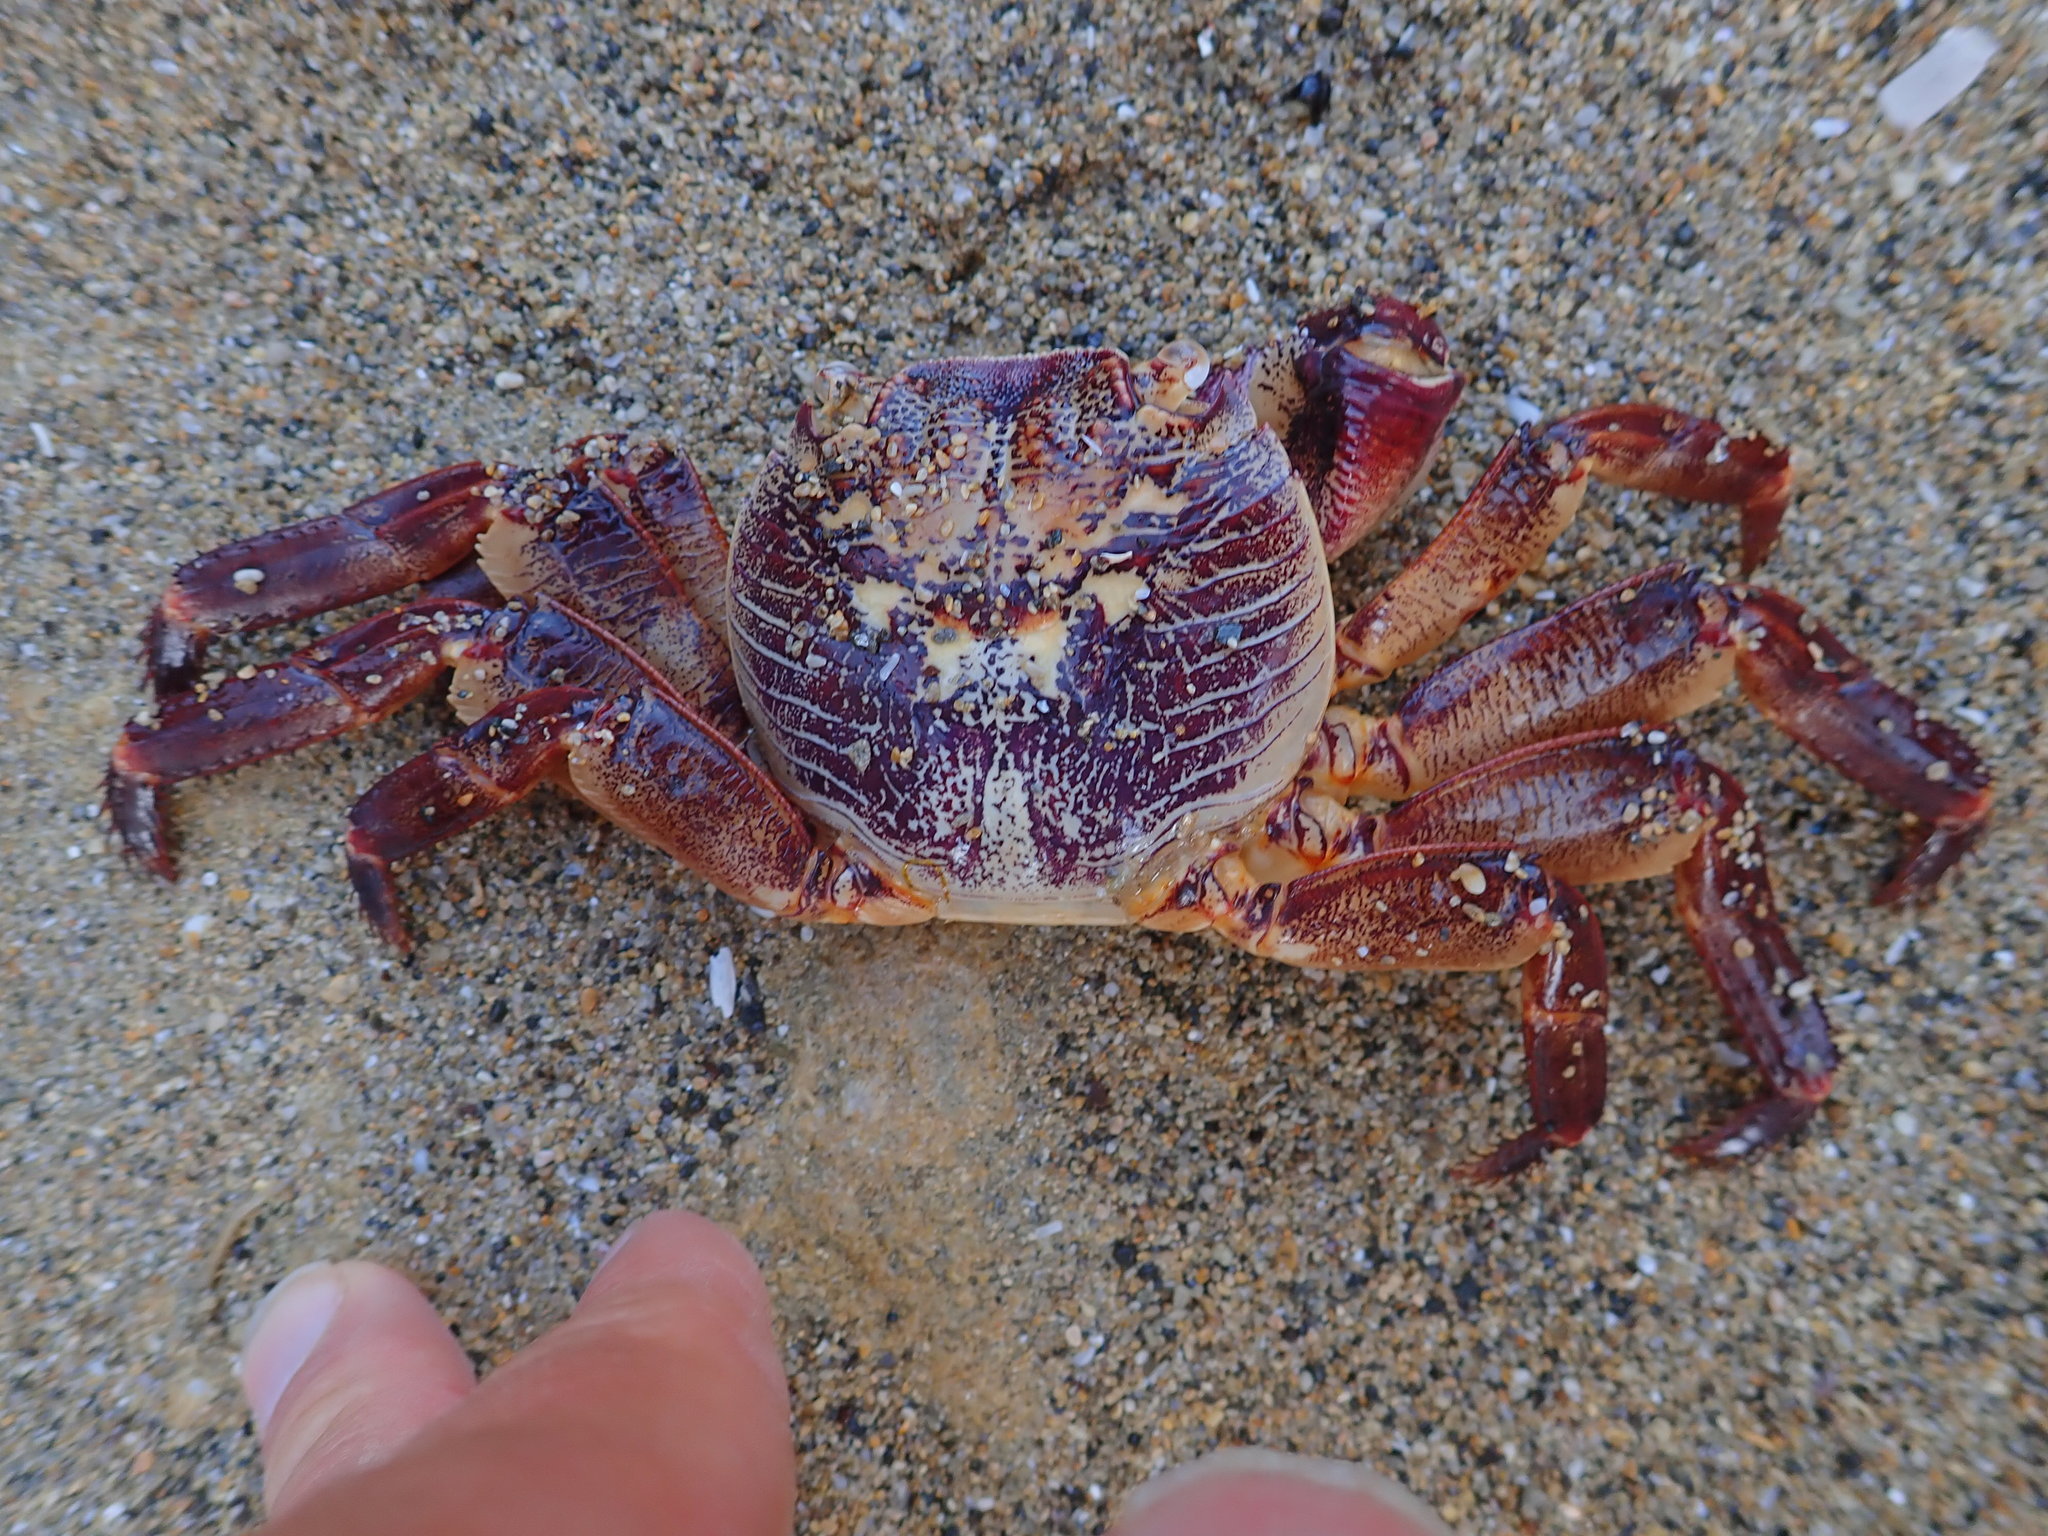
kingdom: Animalia
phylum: Arthropoda
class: Malacostraca
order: Decapoda
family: Grapsidae
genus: Leptograpsus
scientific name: Leptograpsus variegatus
